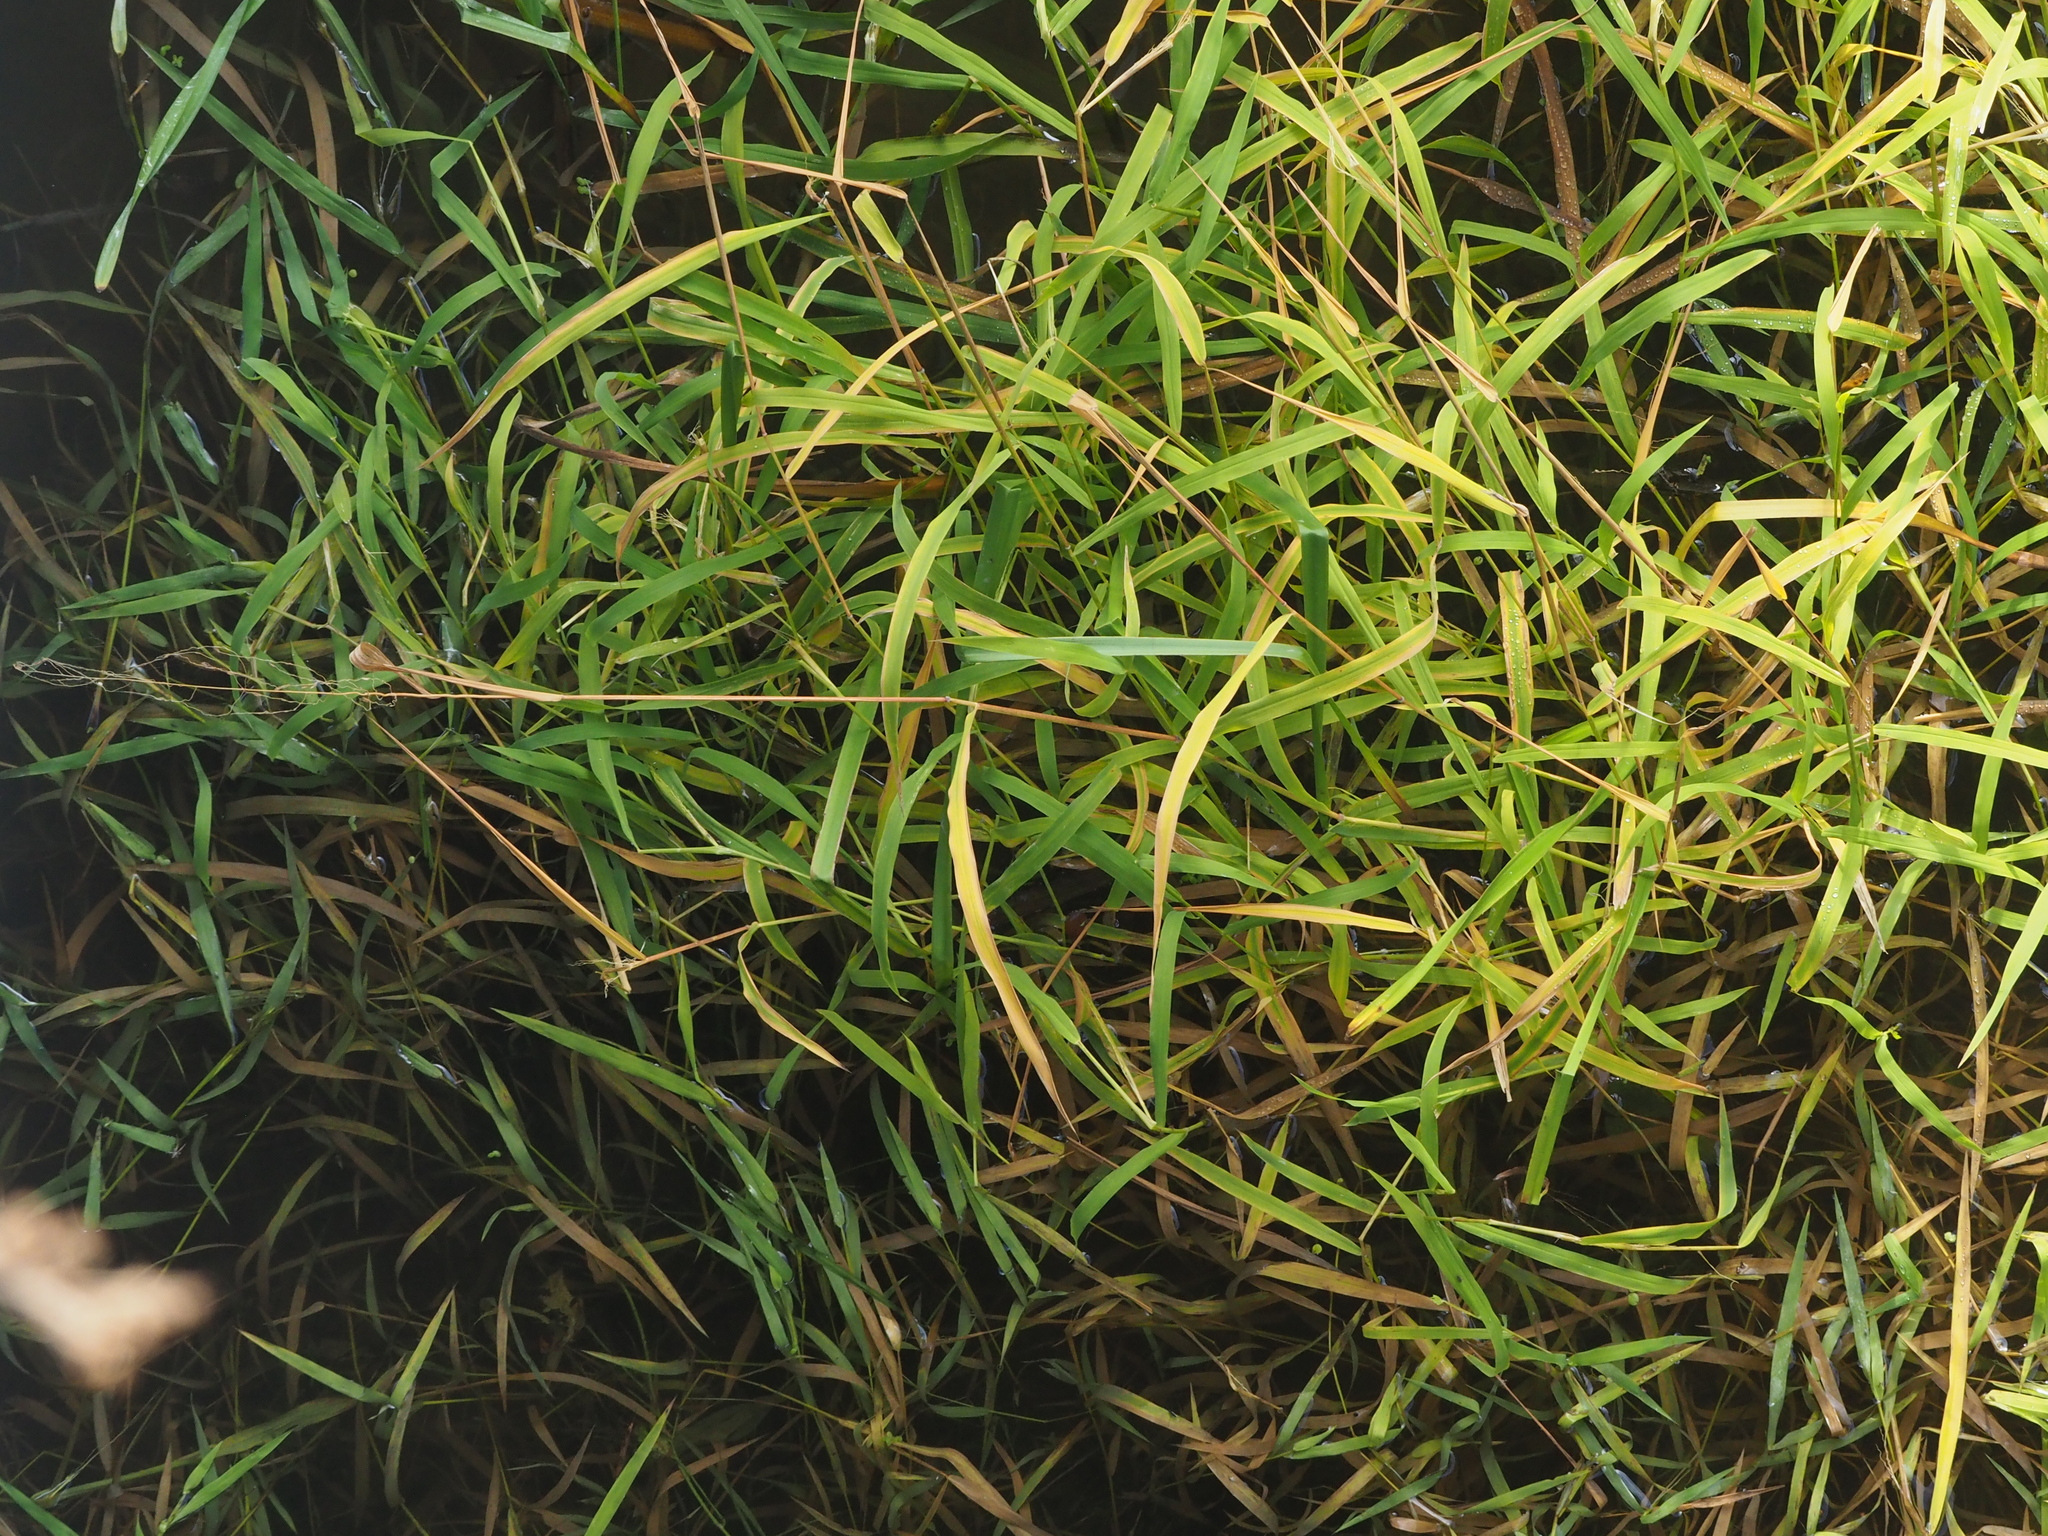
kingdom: Plantae
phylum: Tracheophyta
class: Liliopsida
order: Poales
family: Poaceae
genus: Leersia
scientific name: Leersia oryzoides
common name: Cut-grass
